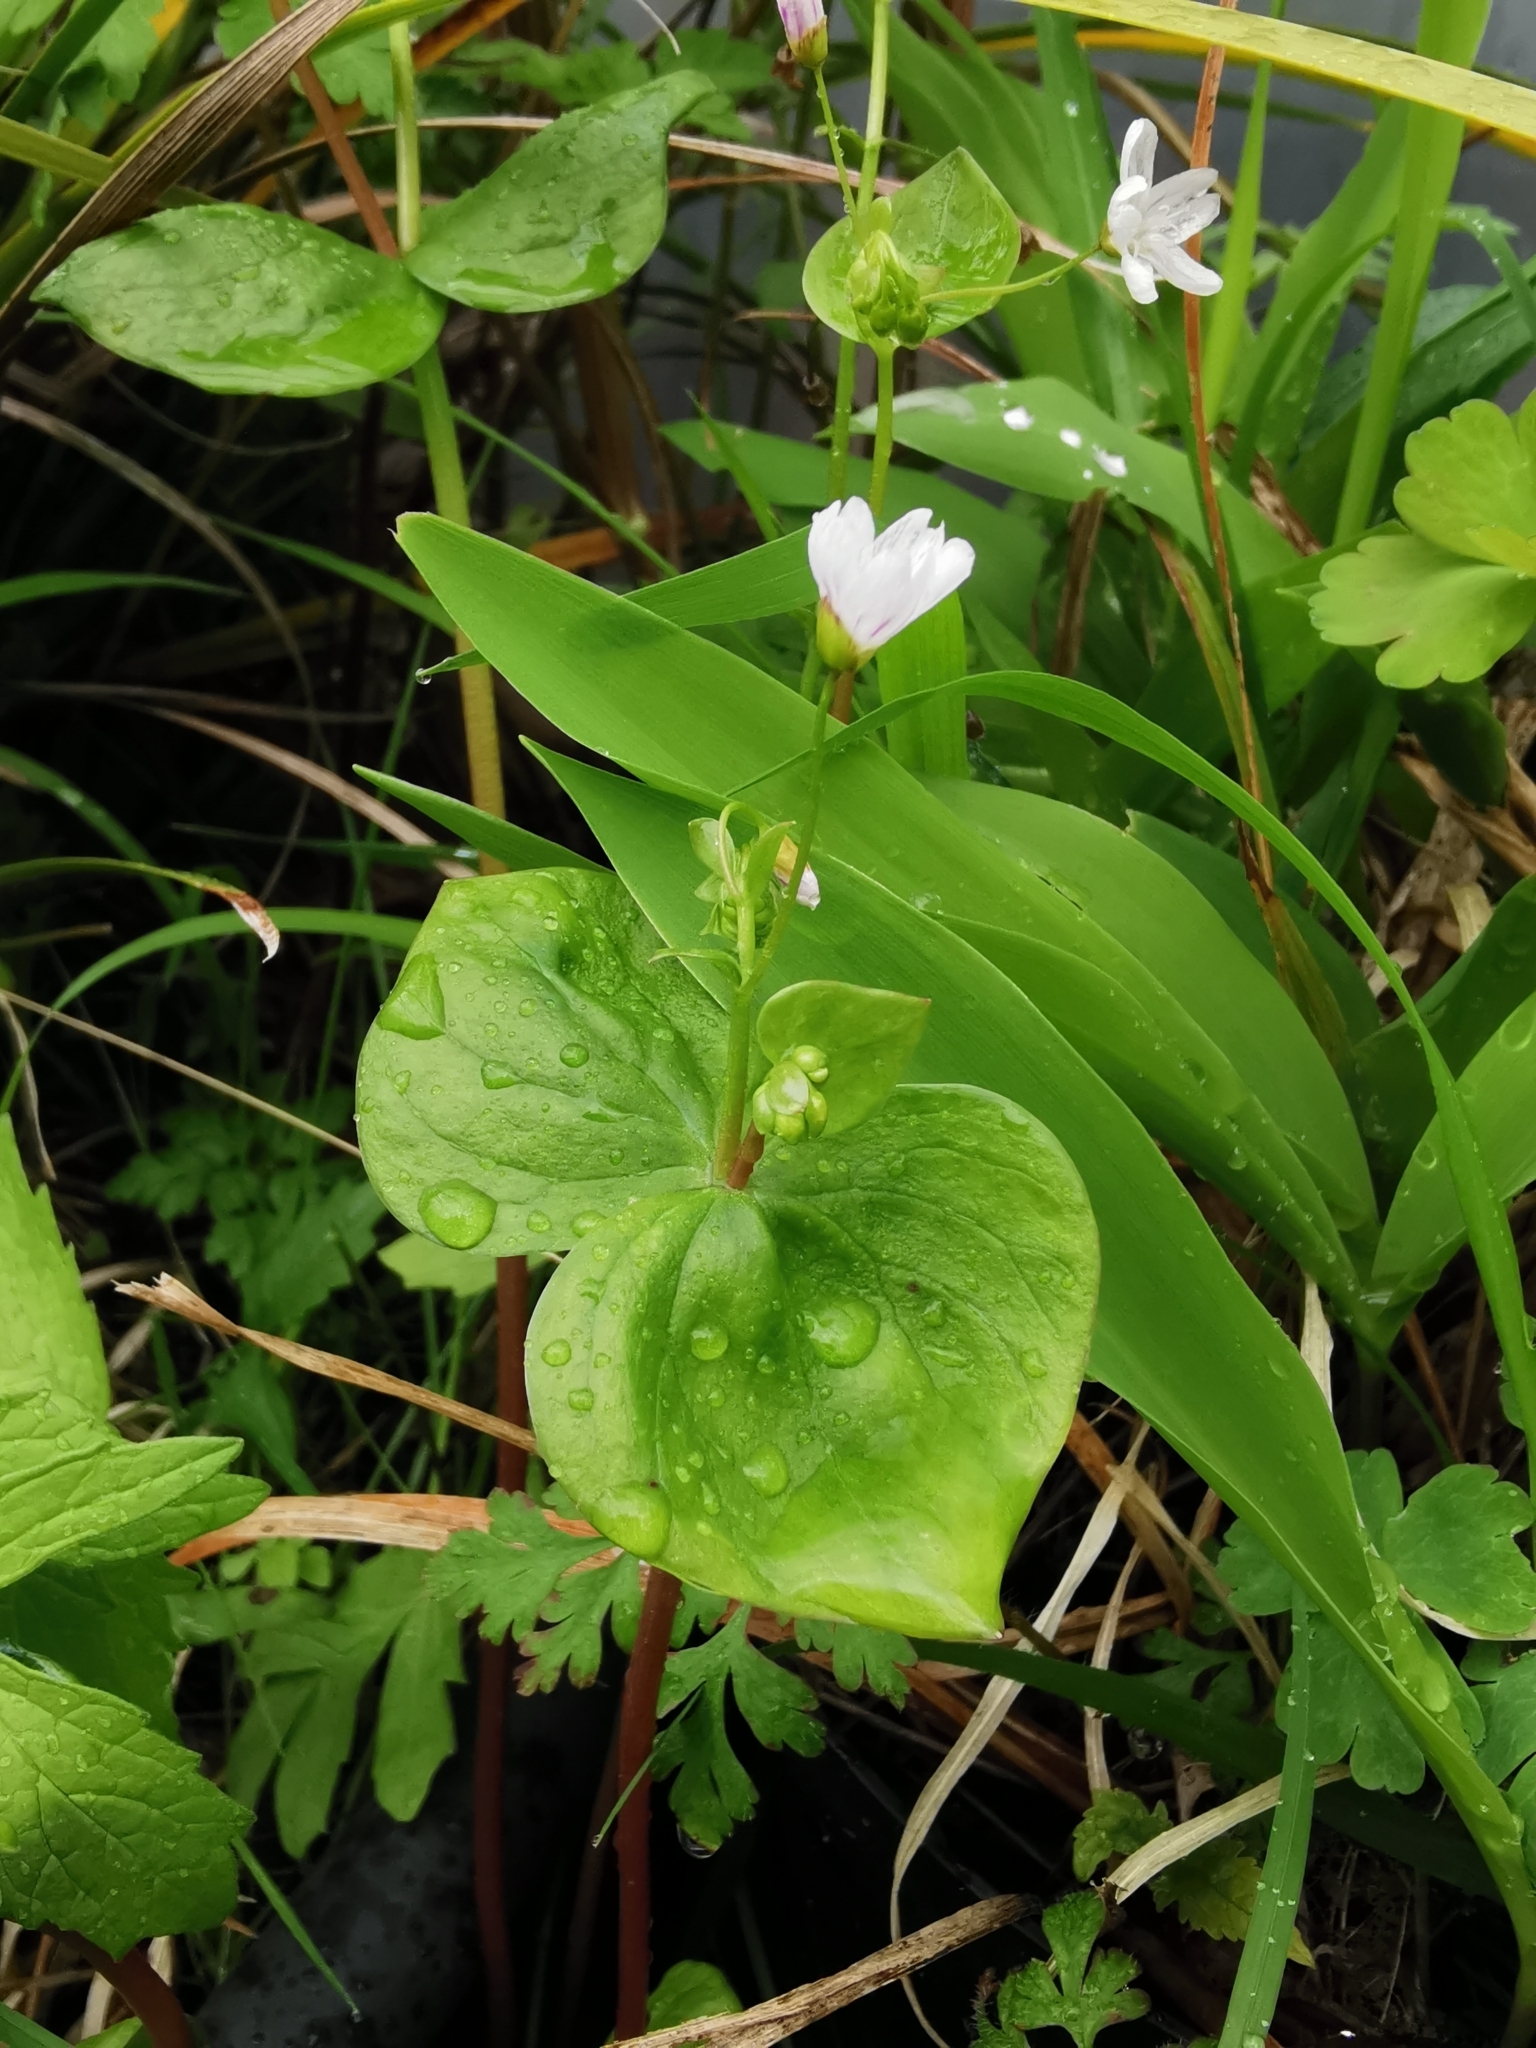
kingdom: Plantae
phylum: Tracheophyta
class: Magnoliopsida
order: Caryophyllales
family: Montiaceae
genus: Claytonia
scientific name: Claytonia sibirica
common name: Pink purslane
